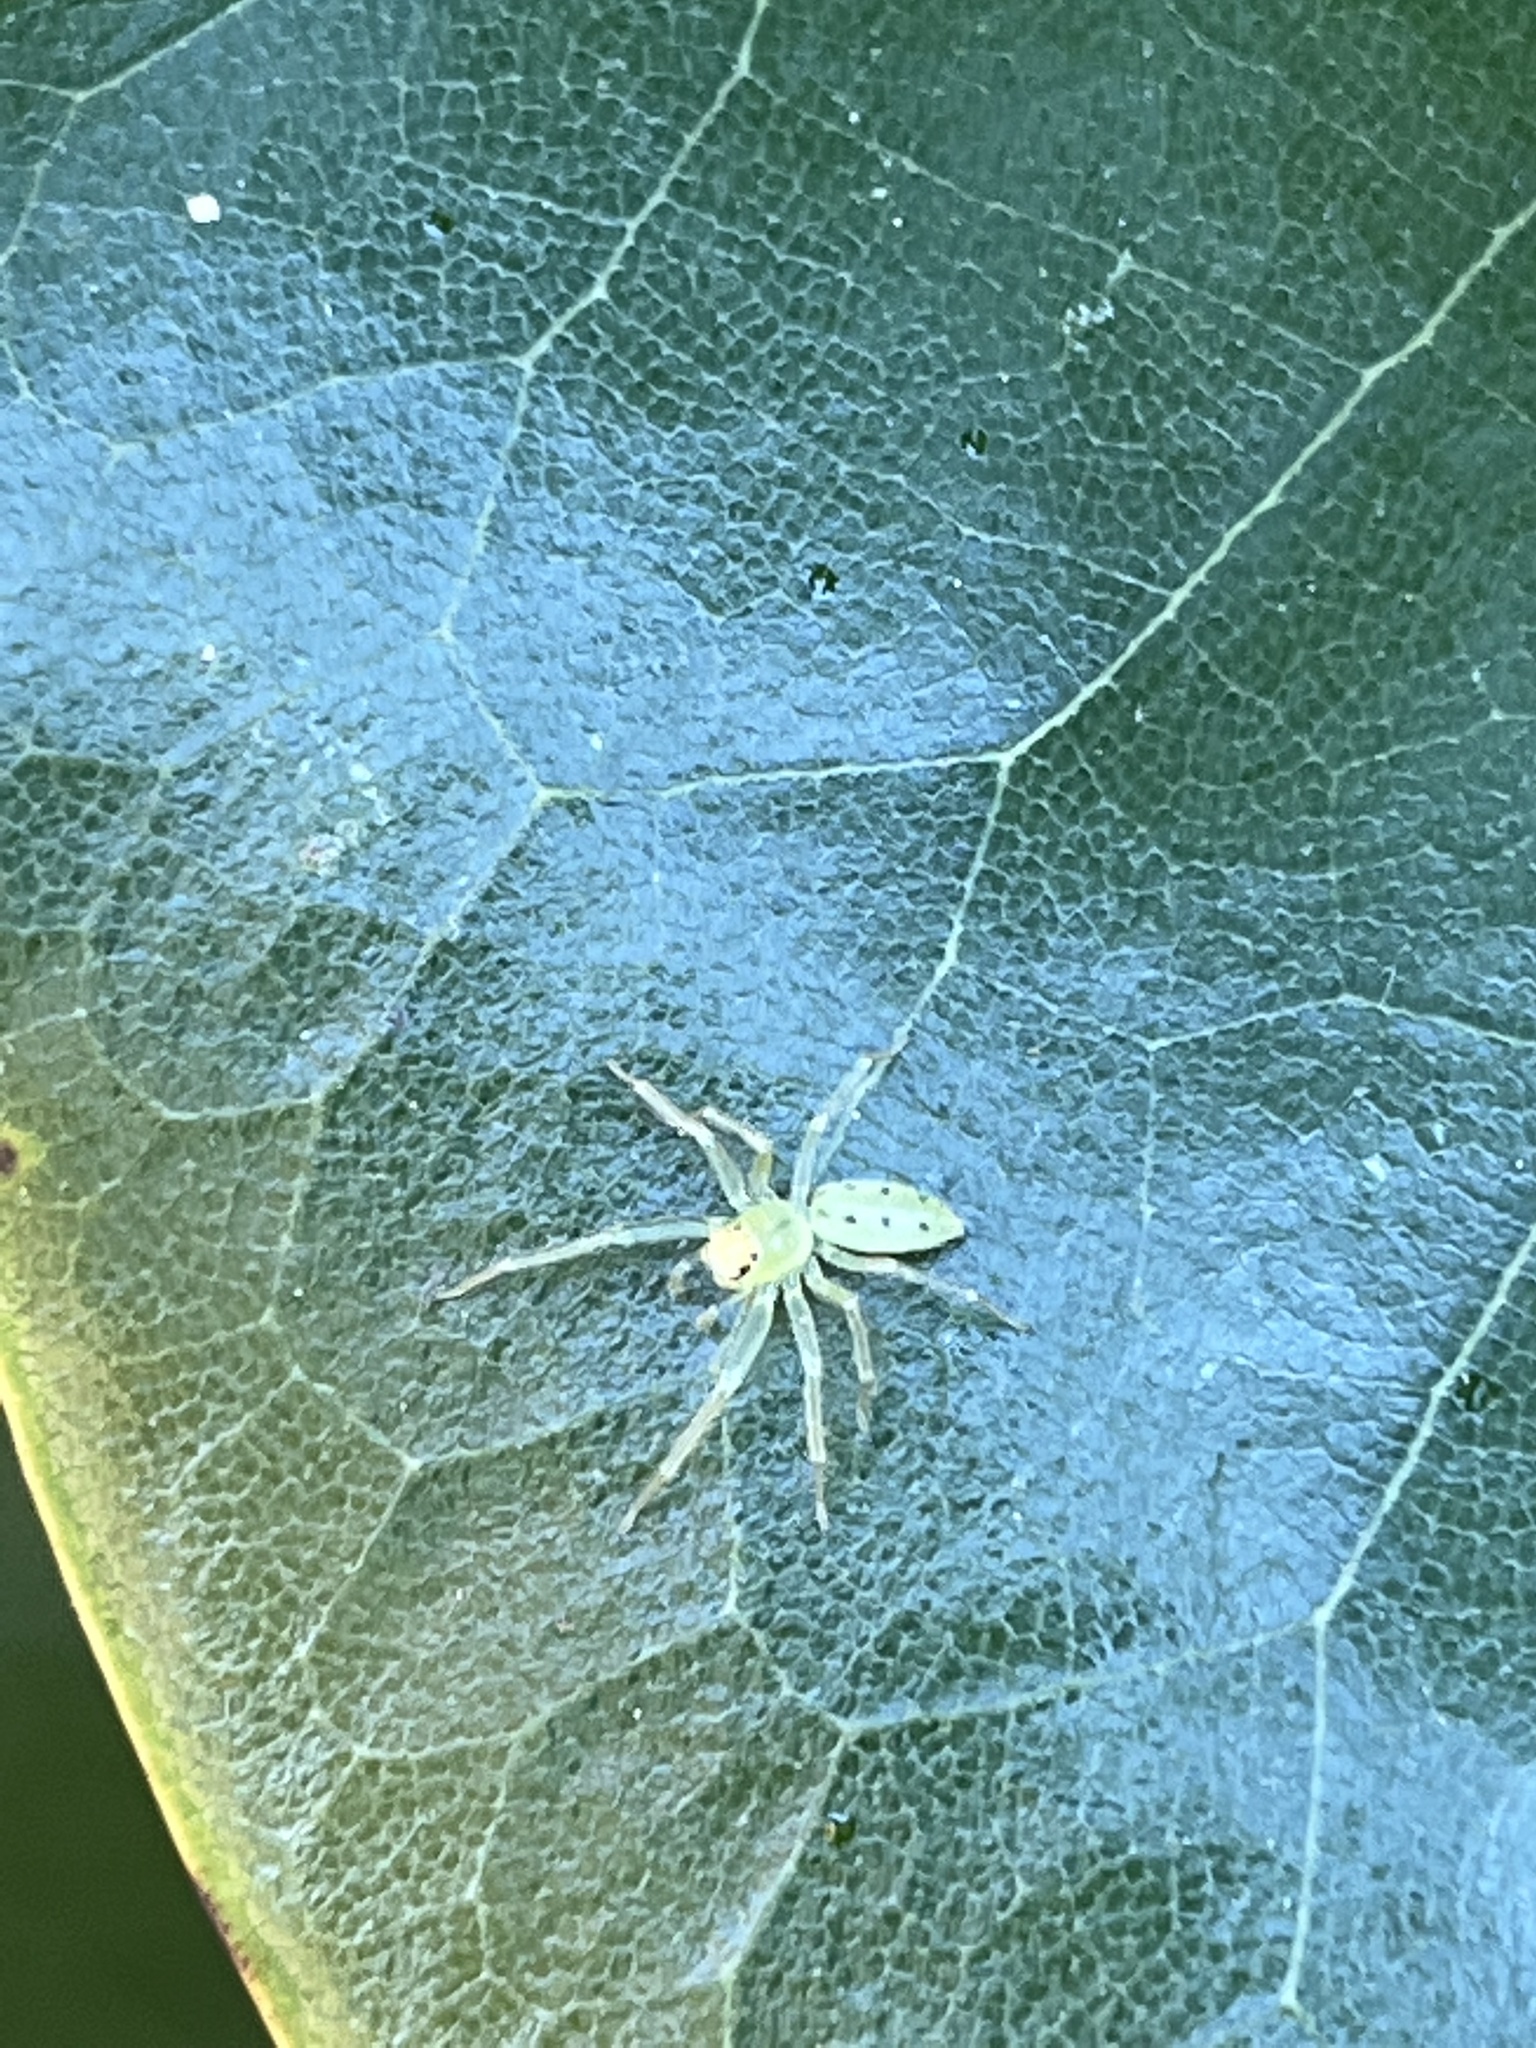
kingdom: Animalia
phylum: Arthropoda
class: Arachnida
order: Araneae
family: Salticidae
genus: Lyssomanes
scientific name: Lyssomanes viridis
